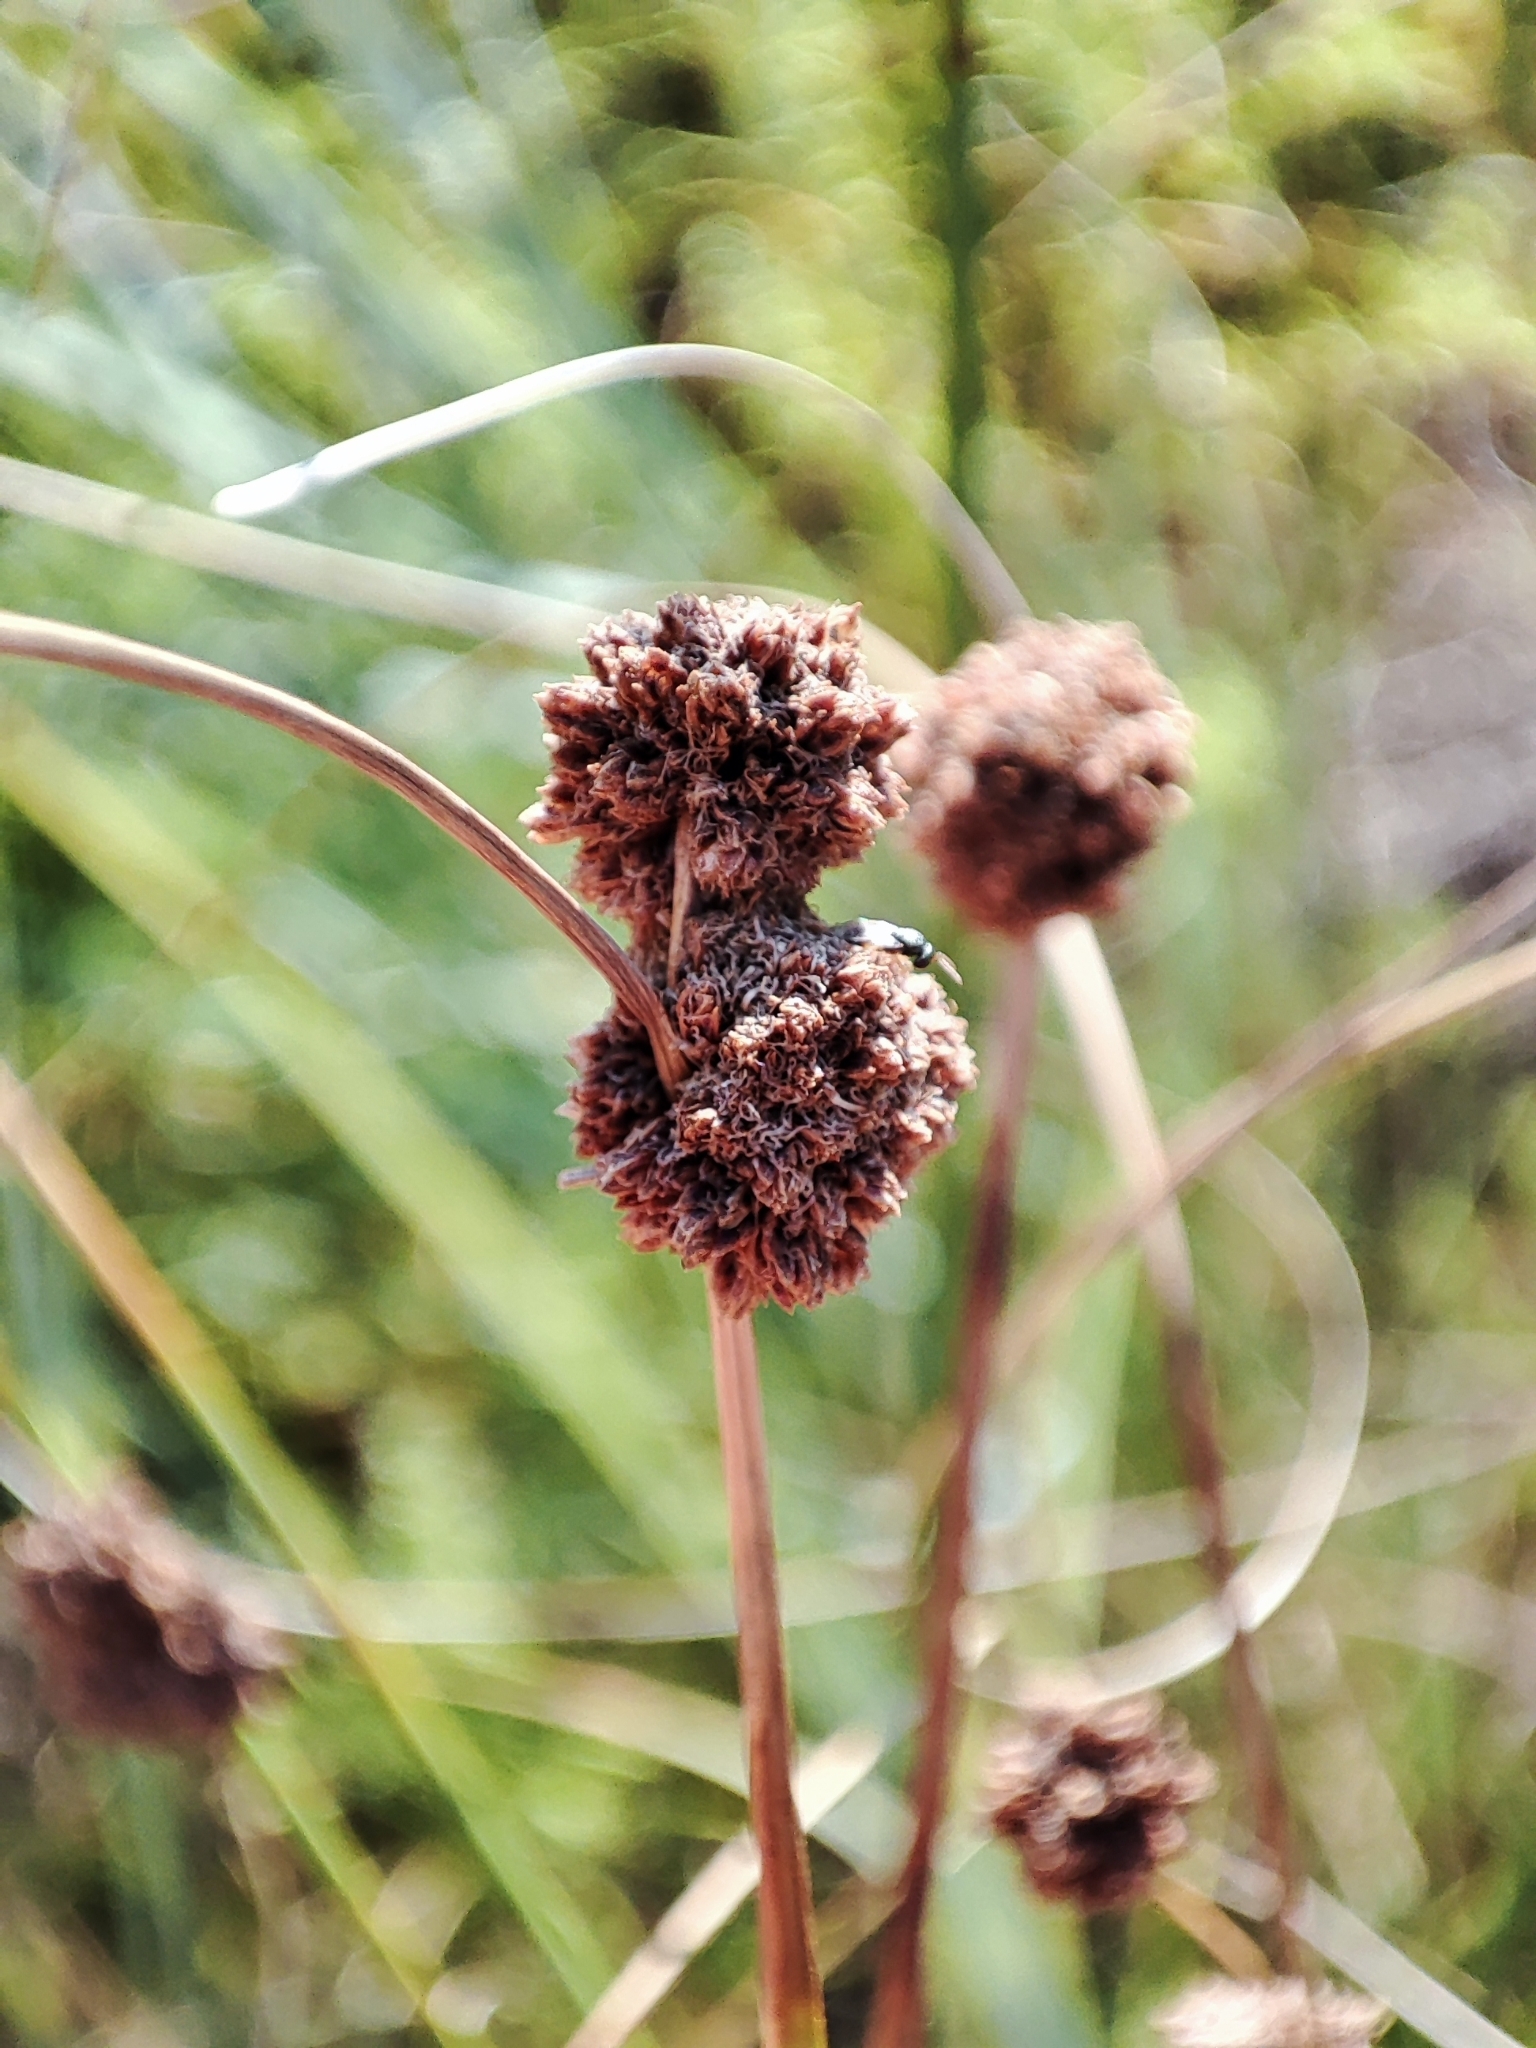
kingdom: Plantae
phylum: Tracheophyta
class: Liliopsida
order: Poales
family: Cyperaceae
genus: Scirpoides
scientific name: Scirpoides holoschoenus
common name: Round-headed club-rush
